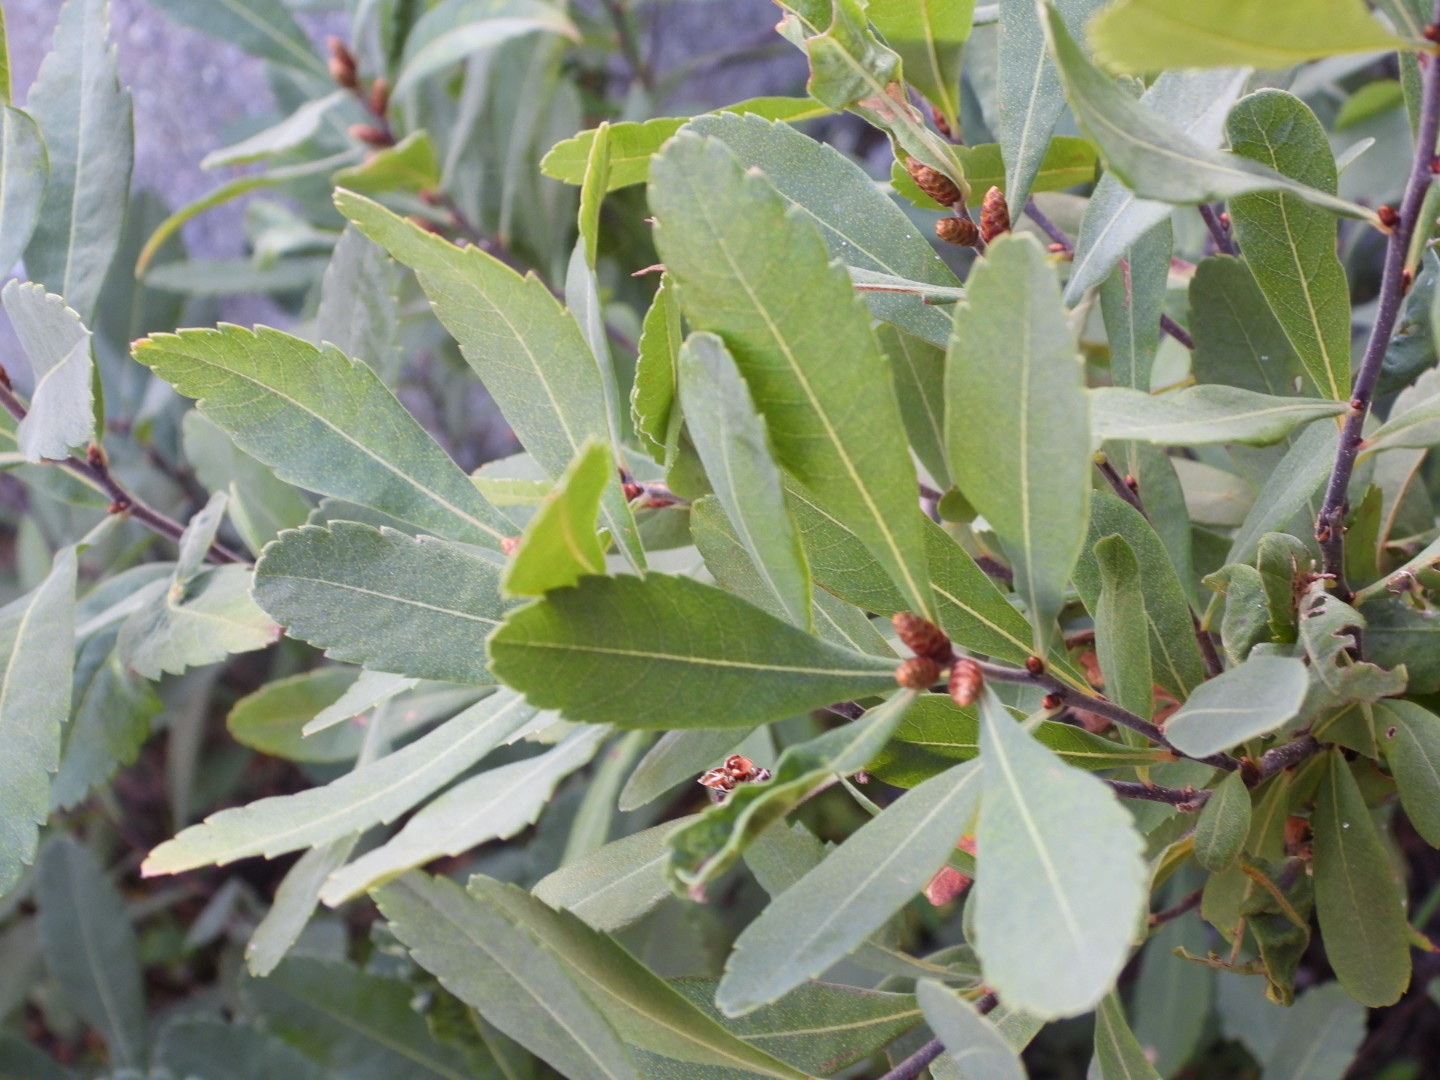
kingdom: Plantae
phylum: Tracheophyta
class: Magnoliopsida
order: Fagales
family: Myricaceae
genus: Myrica
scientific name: Myrica gale
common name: Sweet gale
